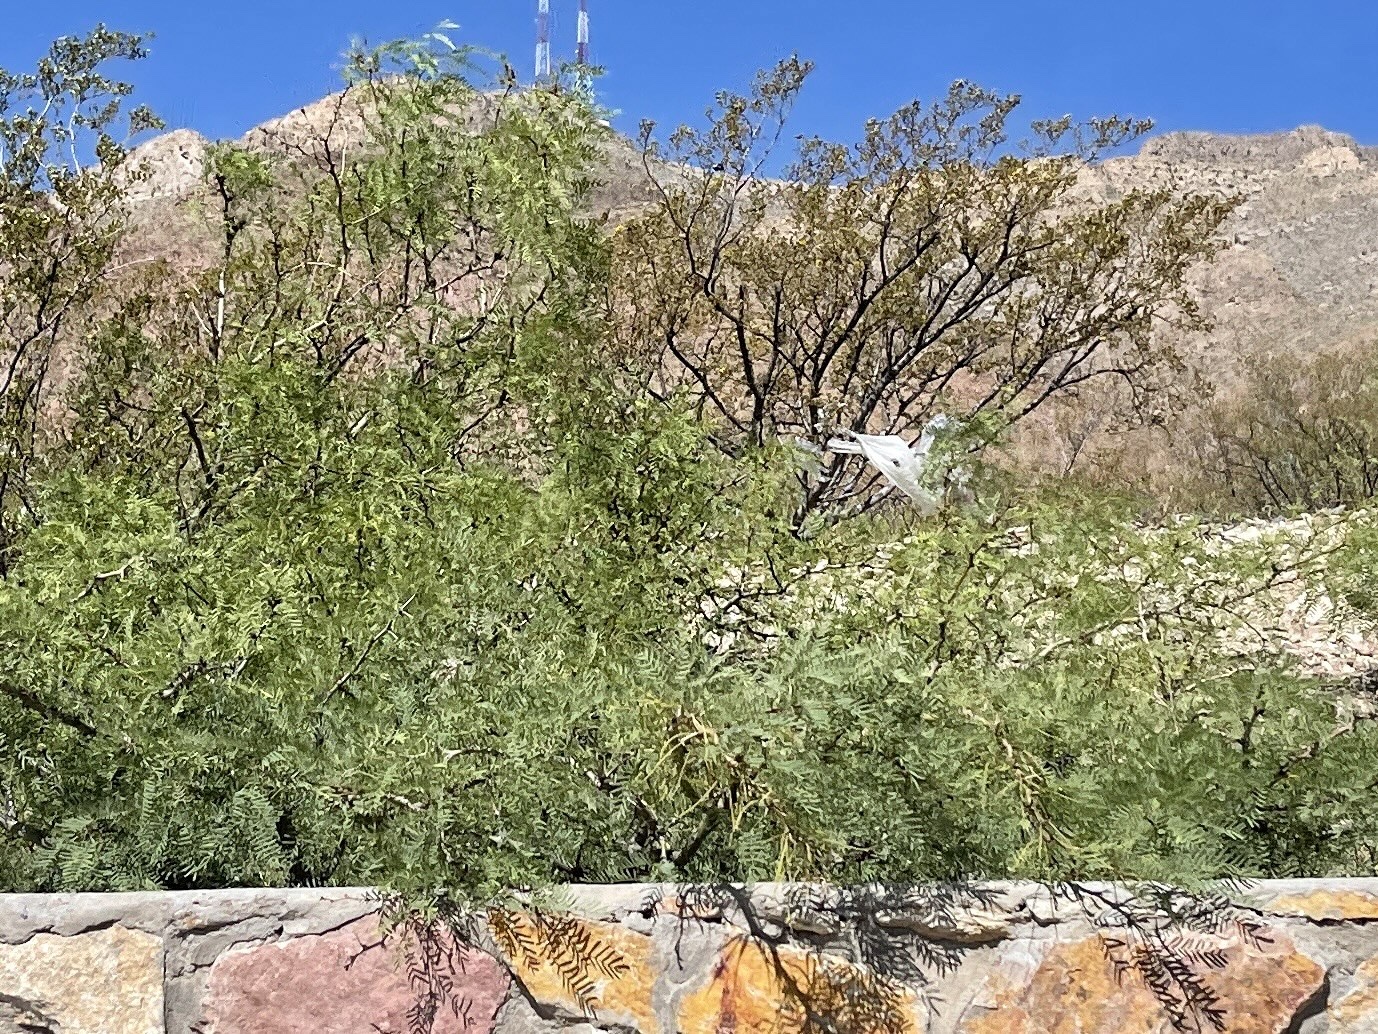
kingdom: Plantae
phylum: Tracheophyta
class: Magnoliopsida
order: Fabales
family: Fabaceae
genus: Prosopis
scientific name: Prosopis glandulosa
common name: Honey mesquite
